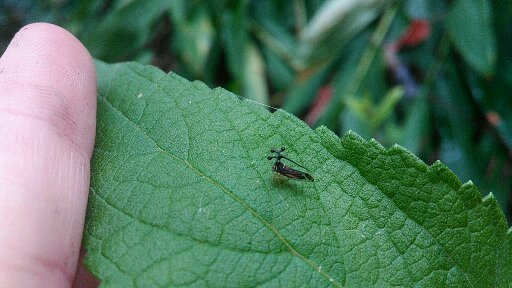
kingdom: Animalia
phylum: Arthropoda
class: Insecta
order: Hemiptera
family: Membracidae
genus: Bocydium
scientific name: Bocydium globulare
